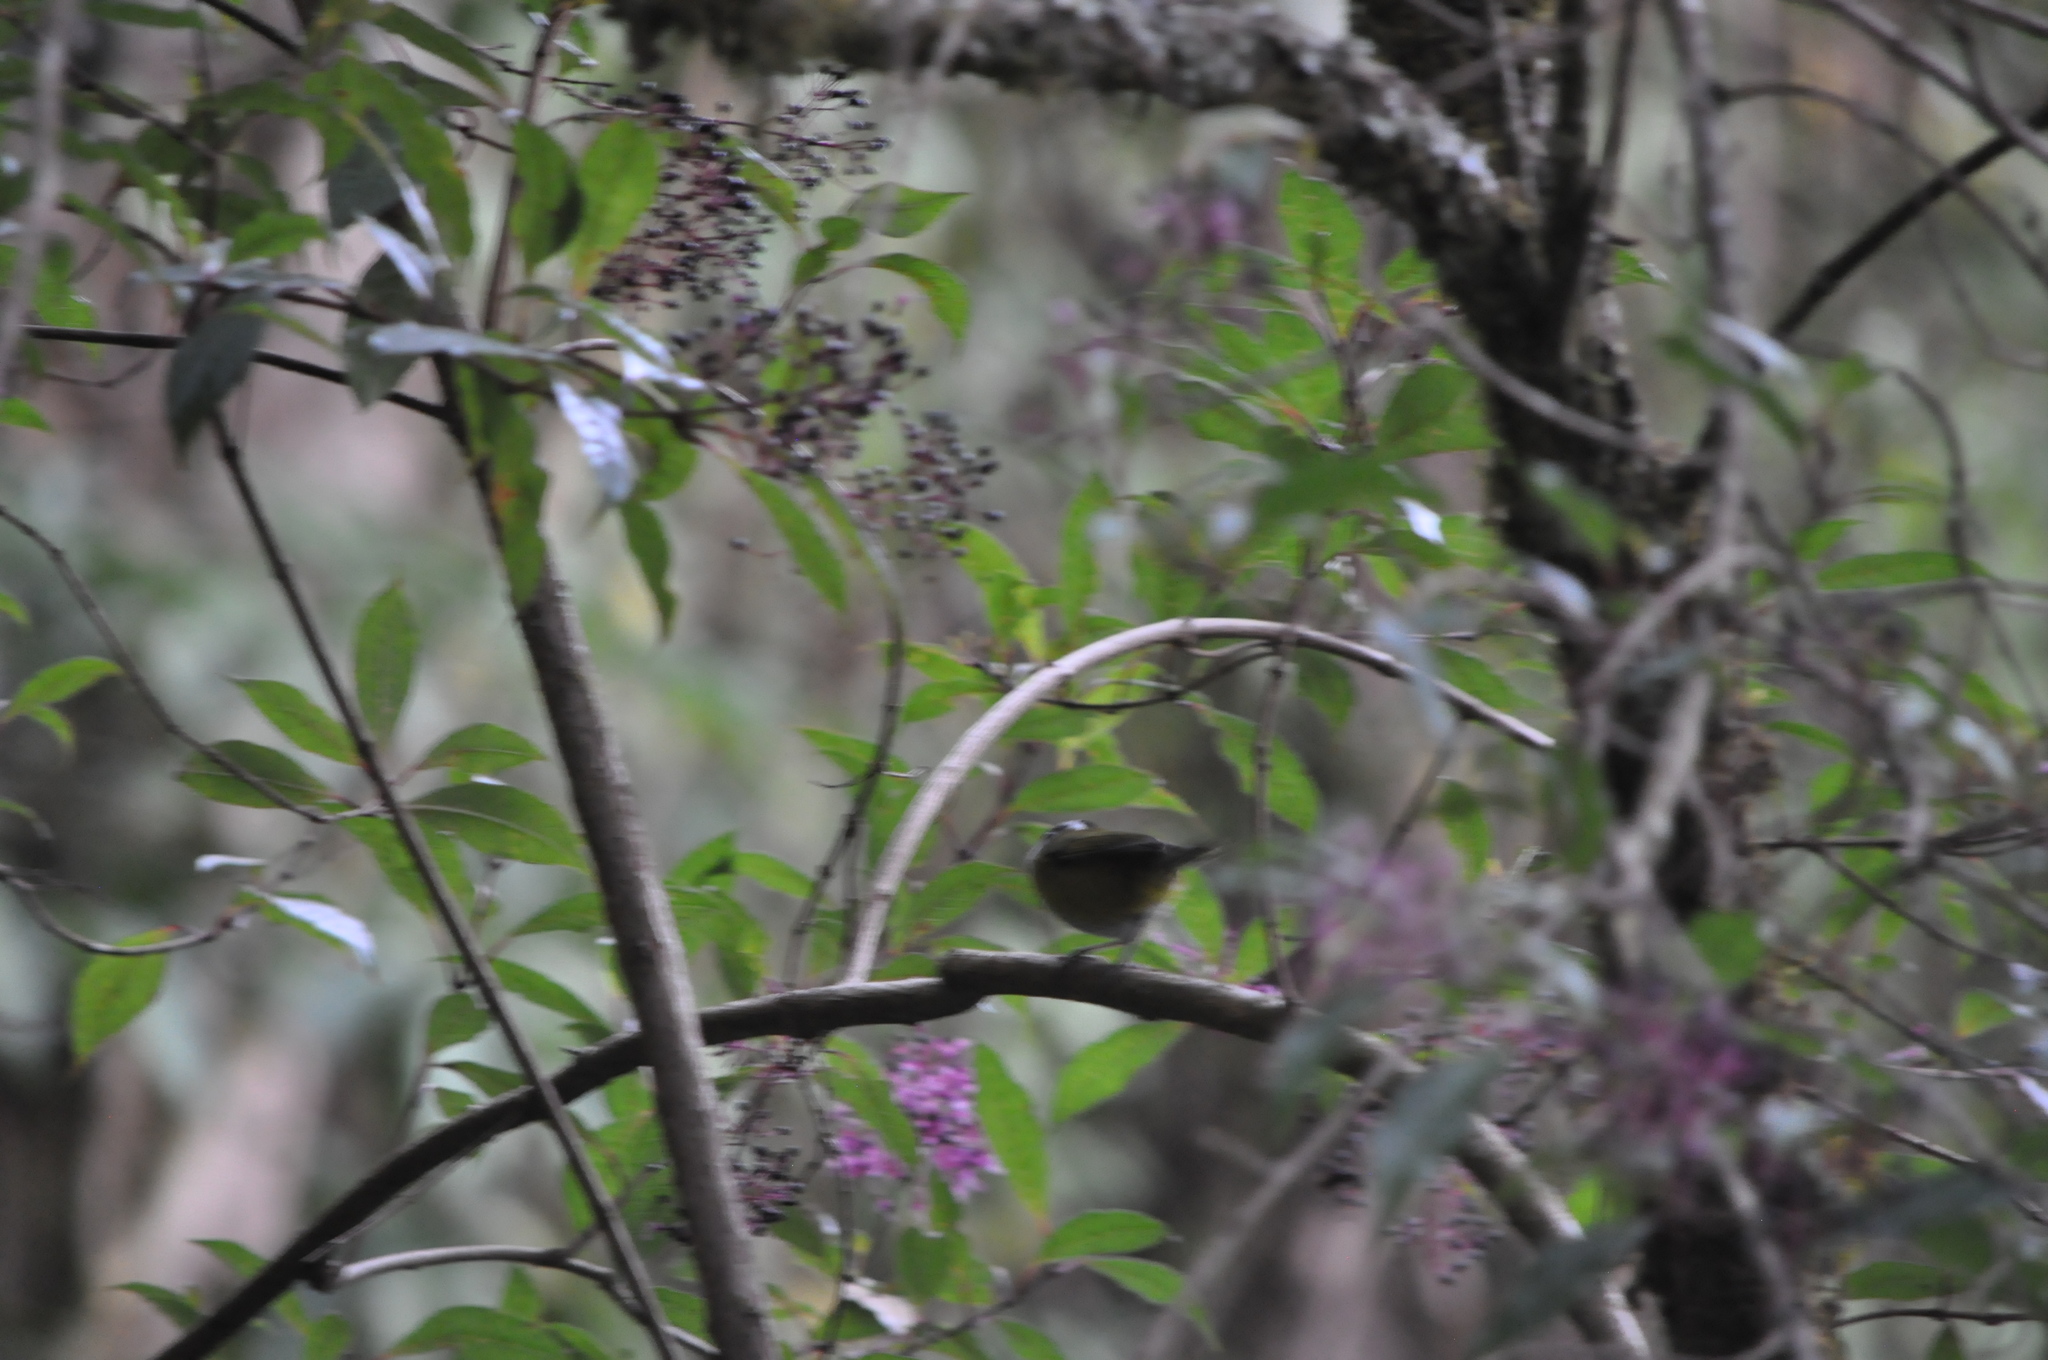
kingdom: Animalia
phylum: Chordata
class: Aves
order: Passeriformes
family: Passerellidae
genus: Chlorospingus
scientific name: Chlorospingus pileatus
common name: Sooty-capped bush-tanager
